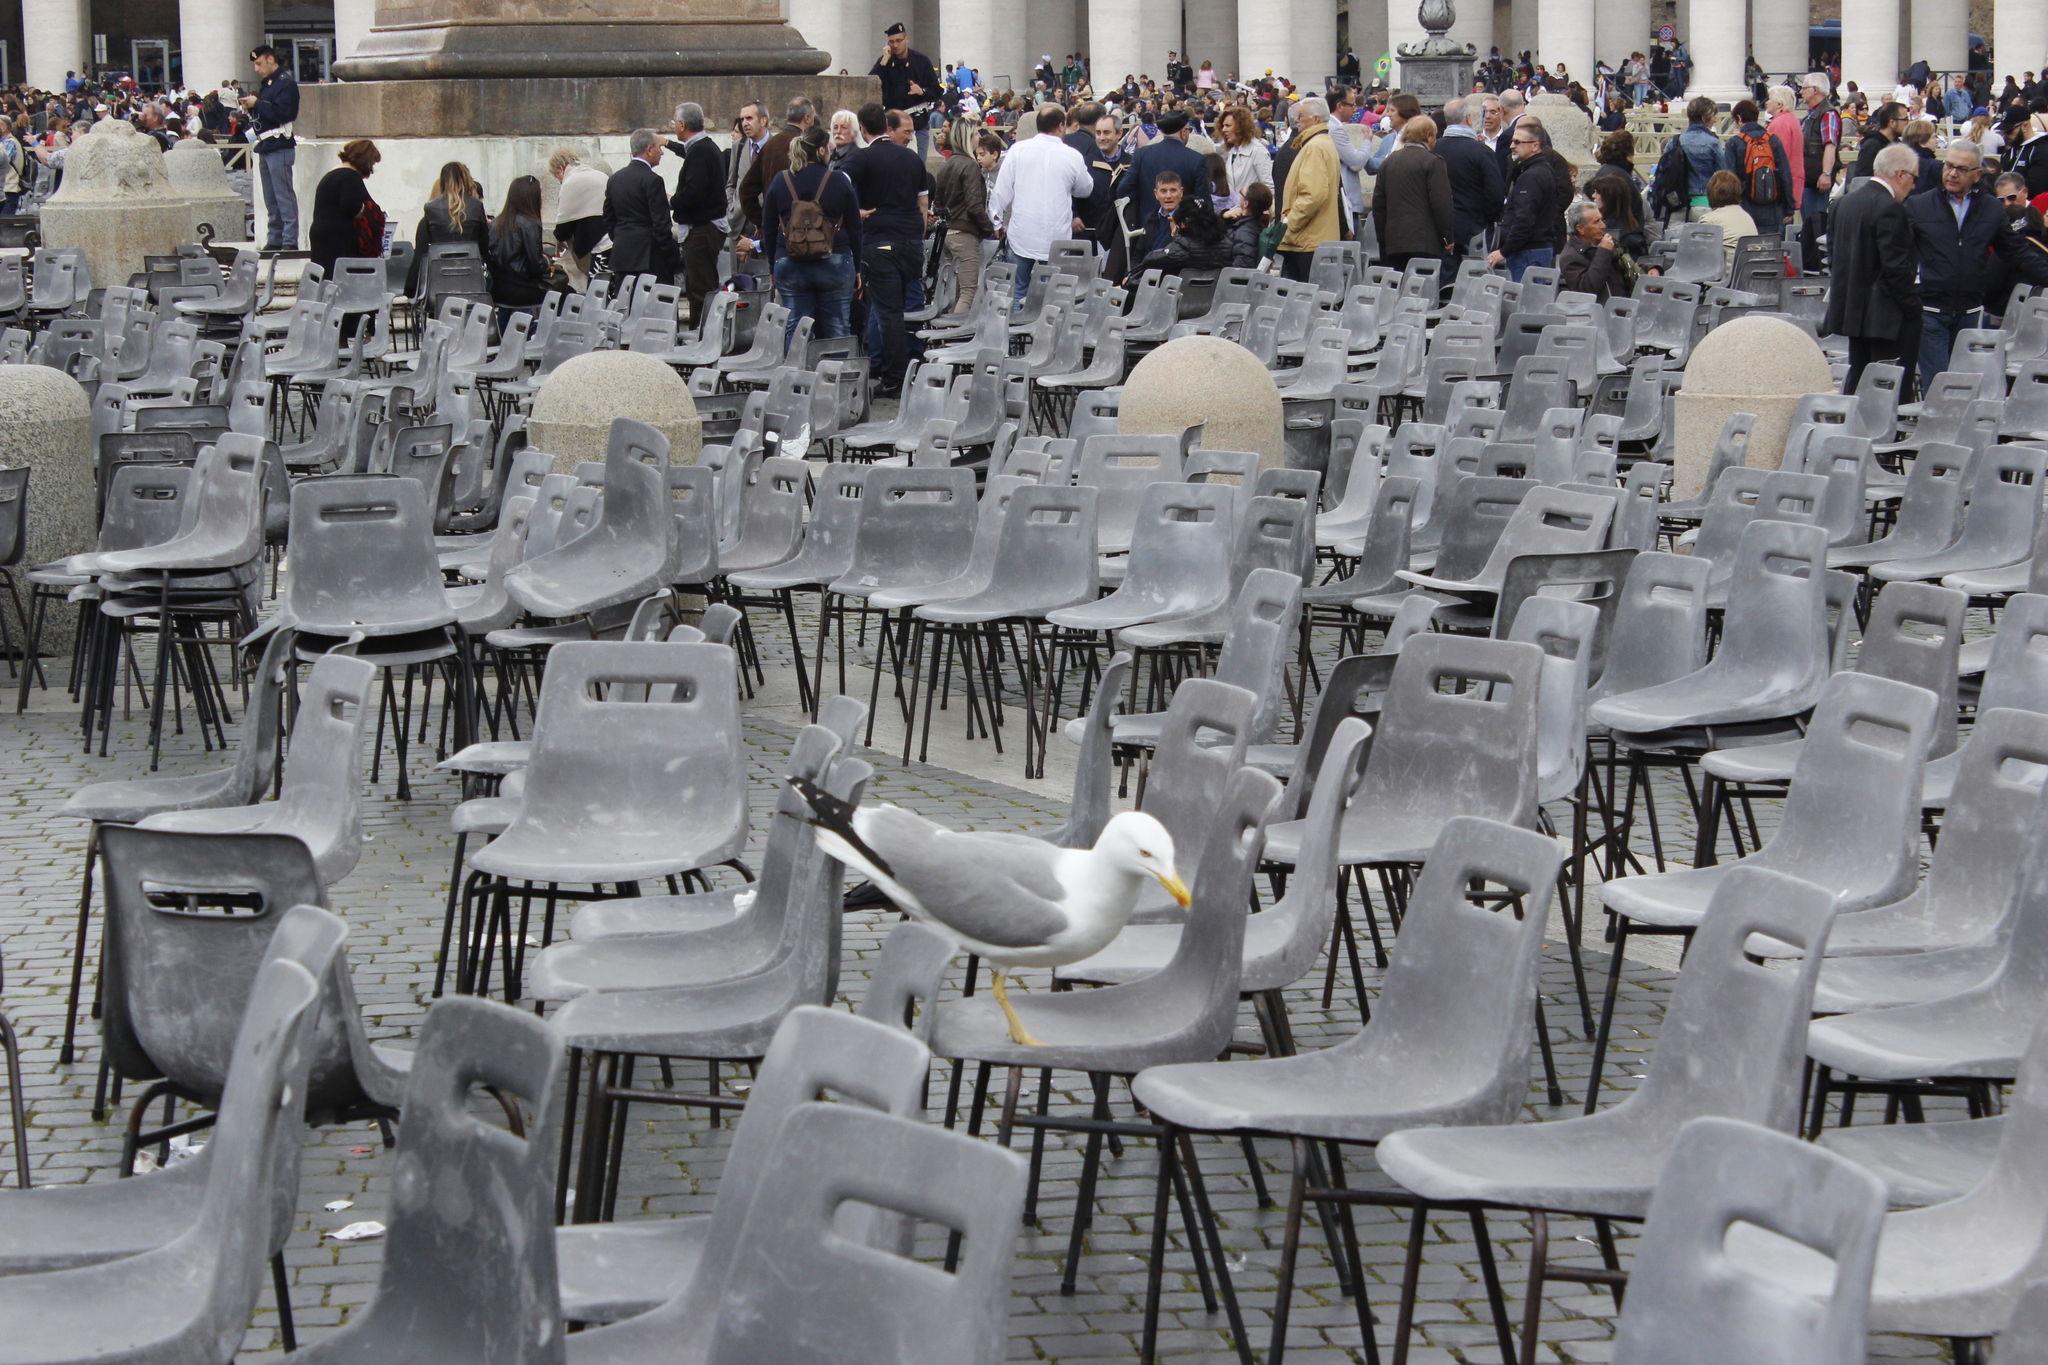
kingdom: Animalia
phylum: Chordata
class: Aves
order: Charadriiformes
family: Laridae
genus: Larus
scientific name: Larus michahellis
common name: Yellow-legged gull
